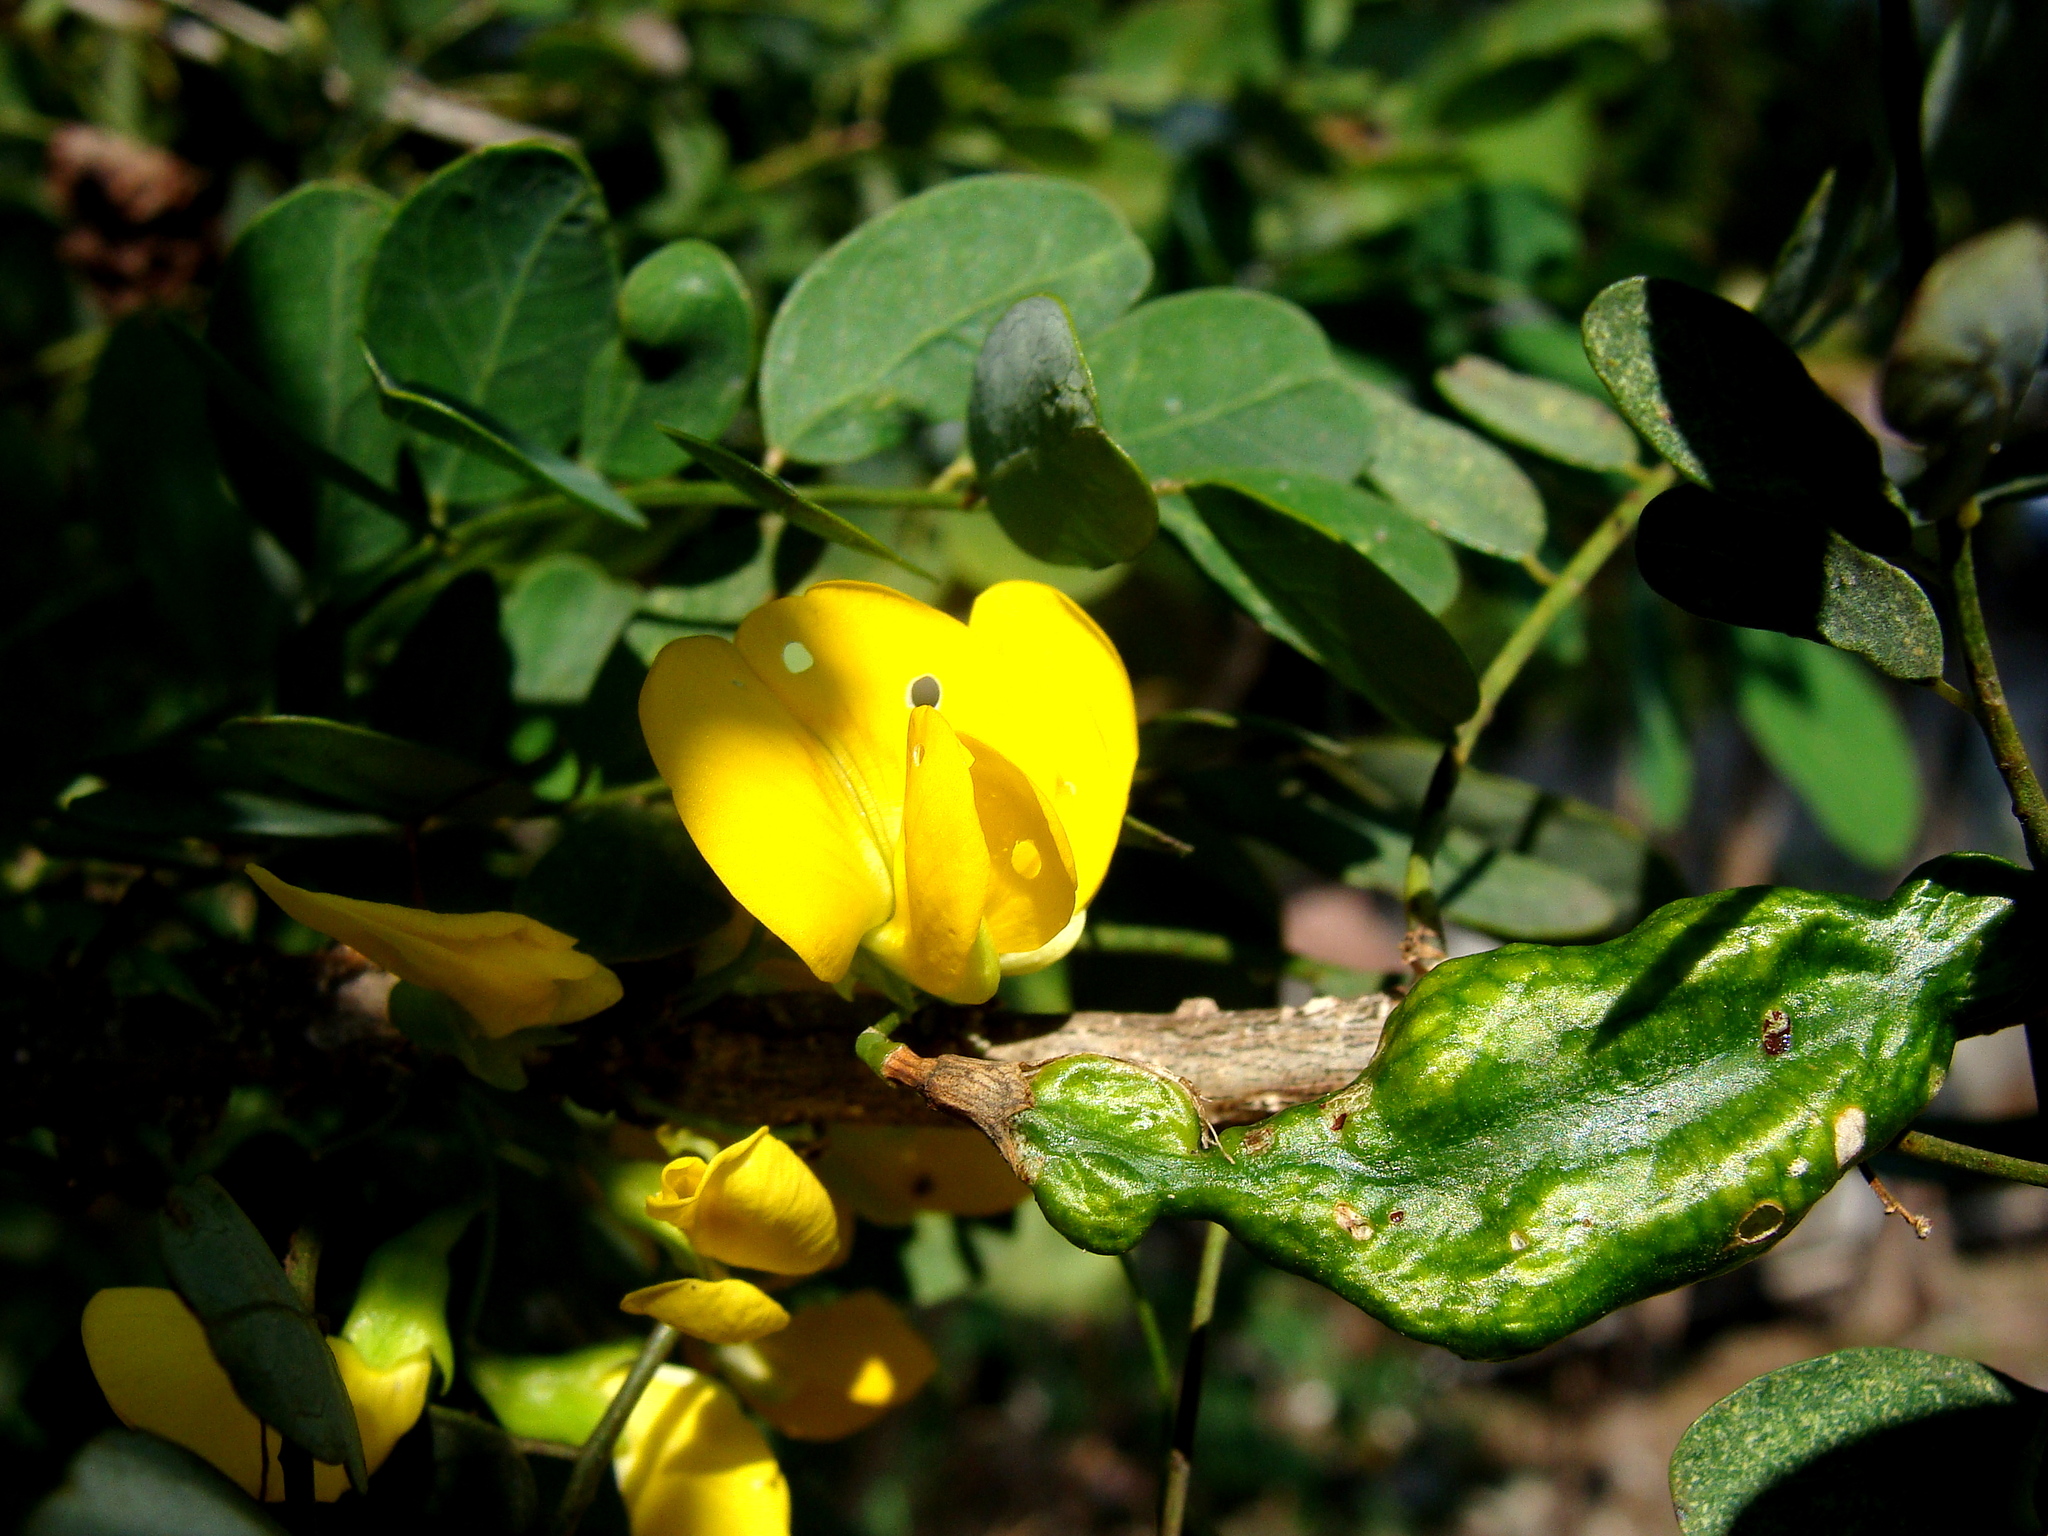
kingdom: Plantae
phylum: Tracheophyta
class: Magnoliopsida
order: Fabales
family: Fabaceae
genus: Diphysa
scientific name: Diphysa americana
